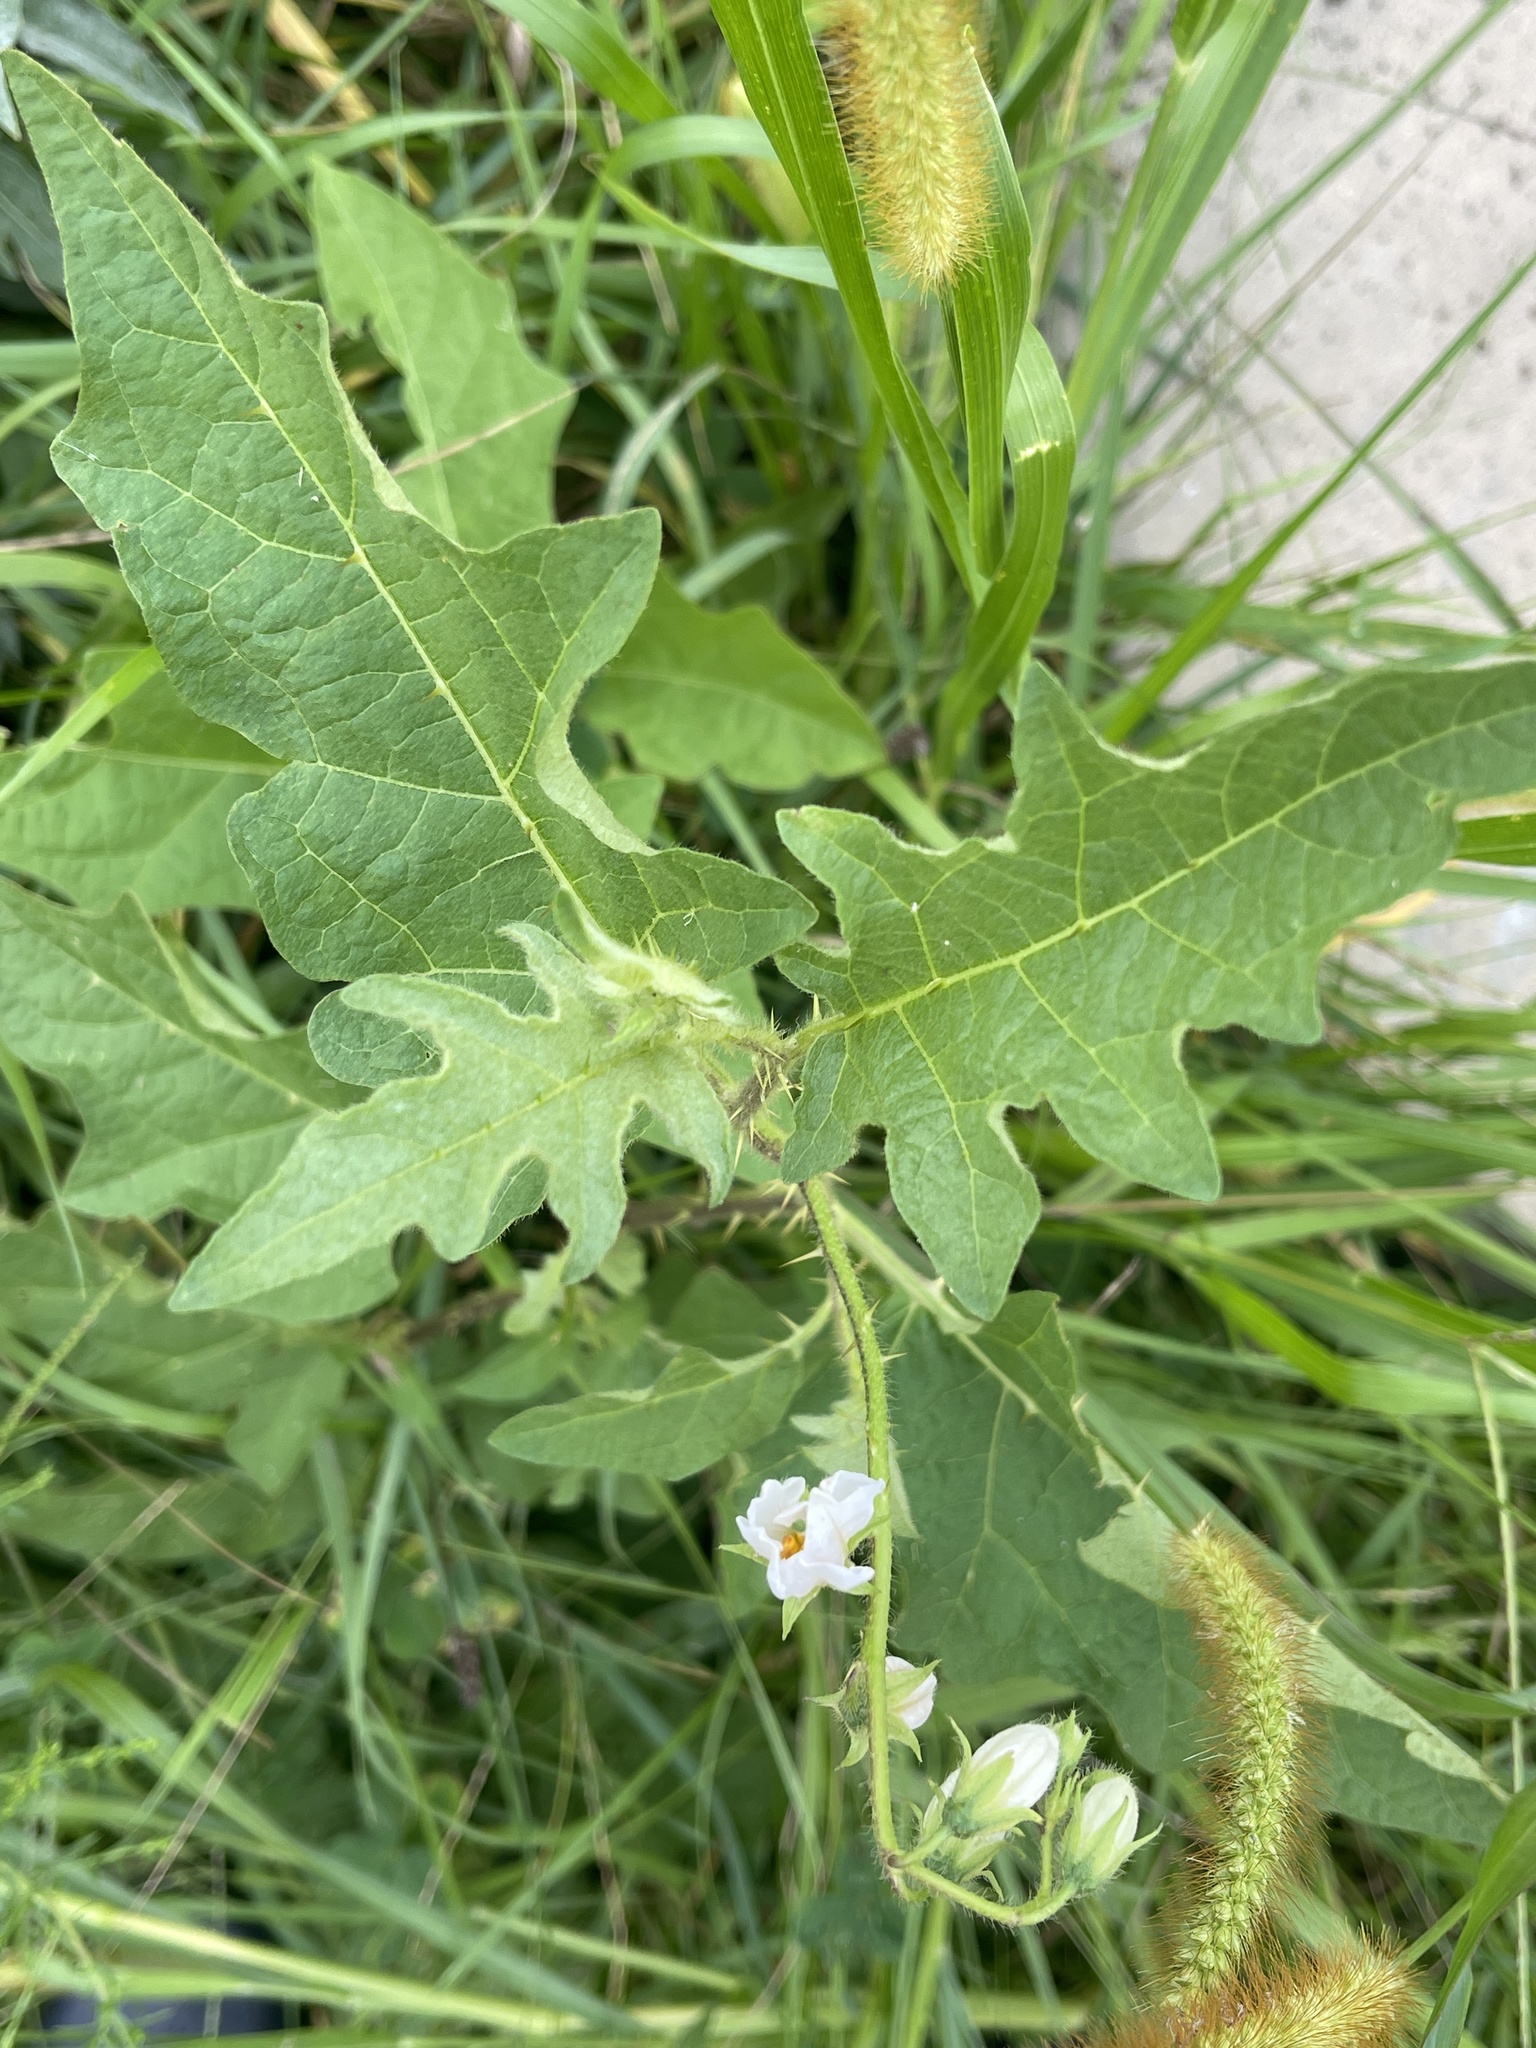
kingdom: Plantae
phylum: Tracheophyta
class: Magnoliopsida
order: Solanales
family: Solanaceae
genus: Solanum
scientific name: Solanum carolinense
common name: Horse-nettle
